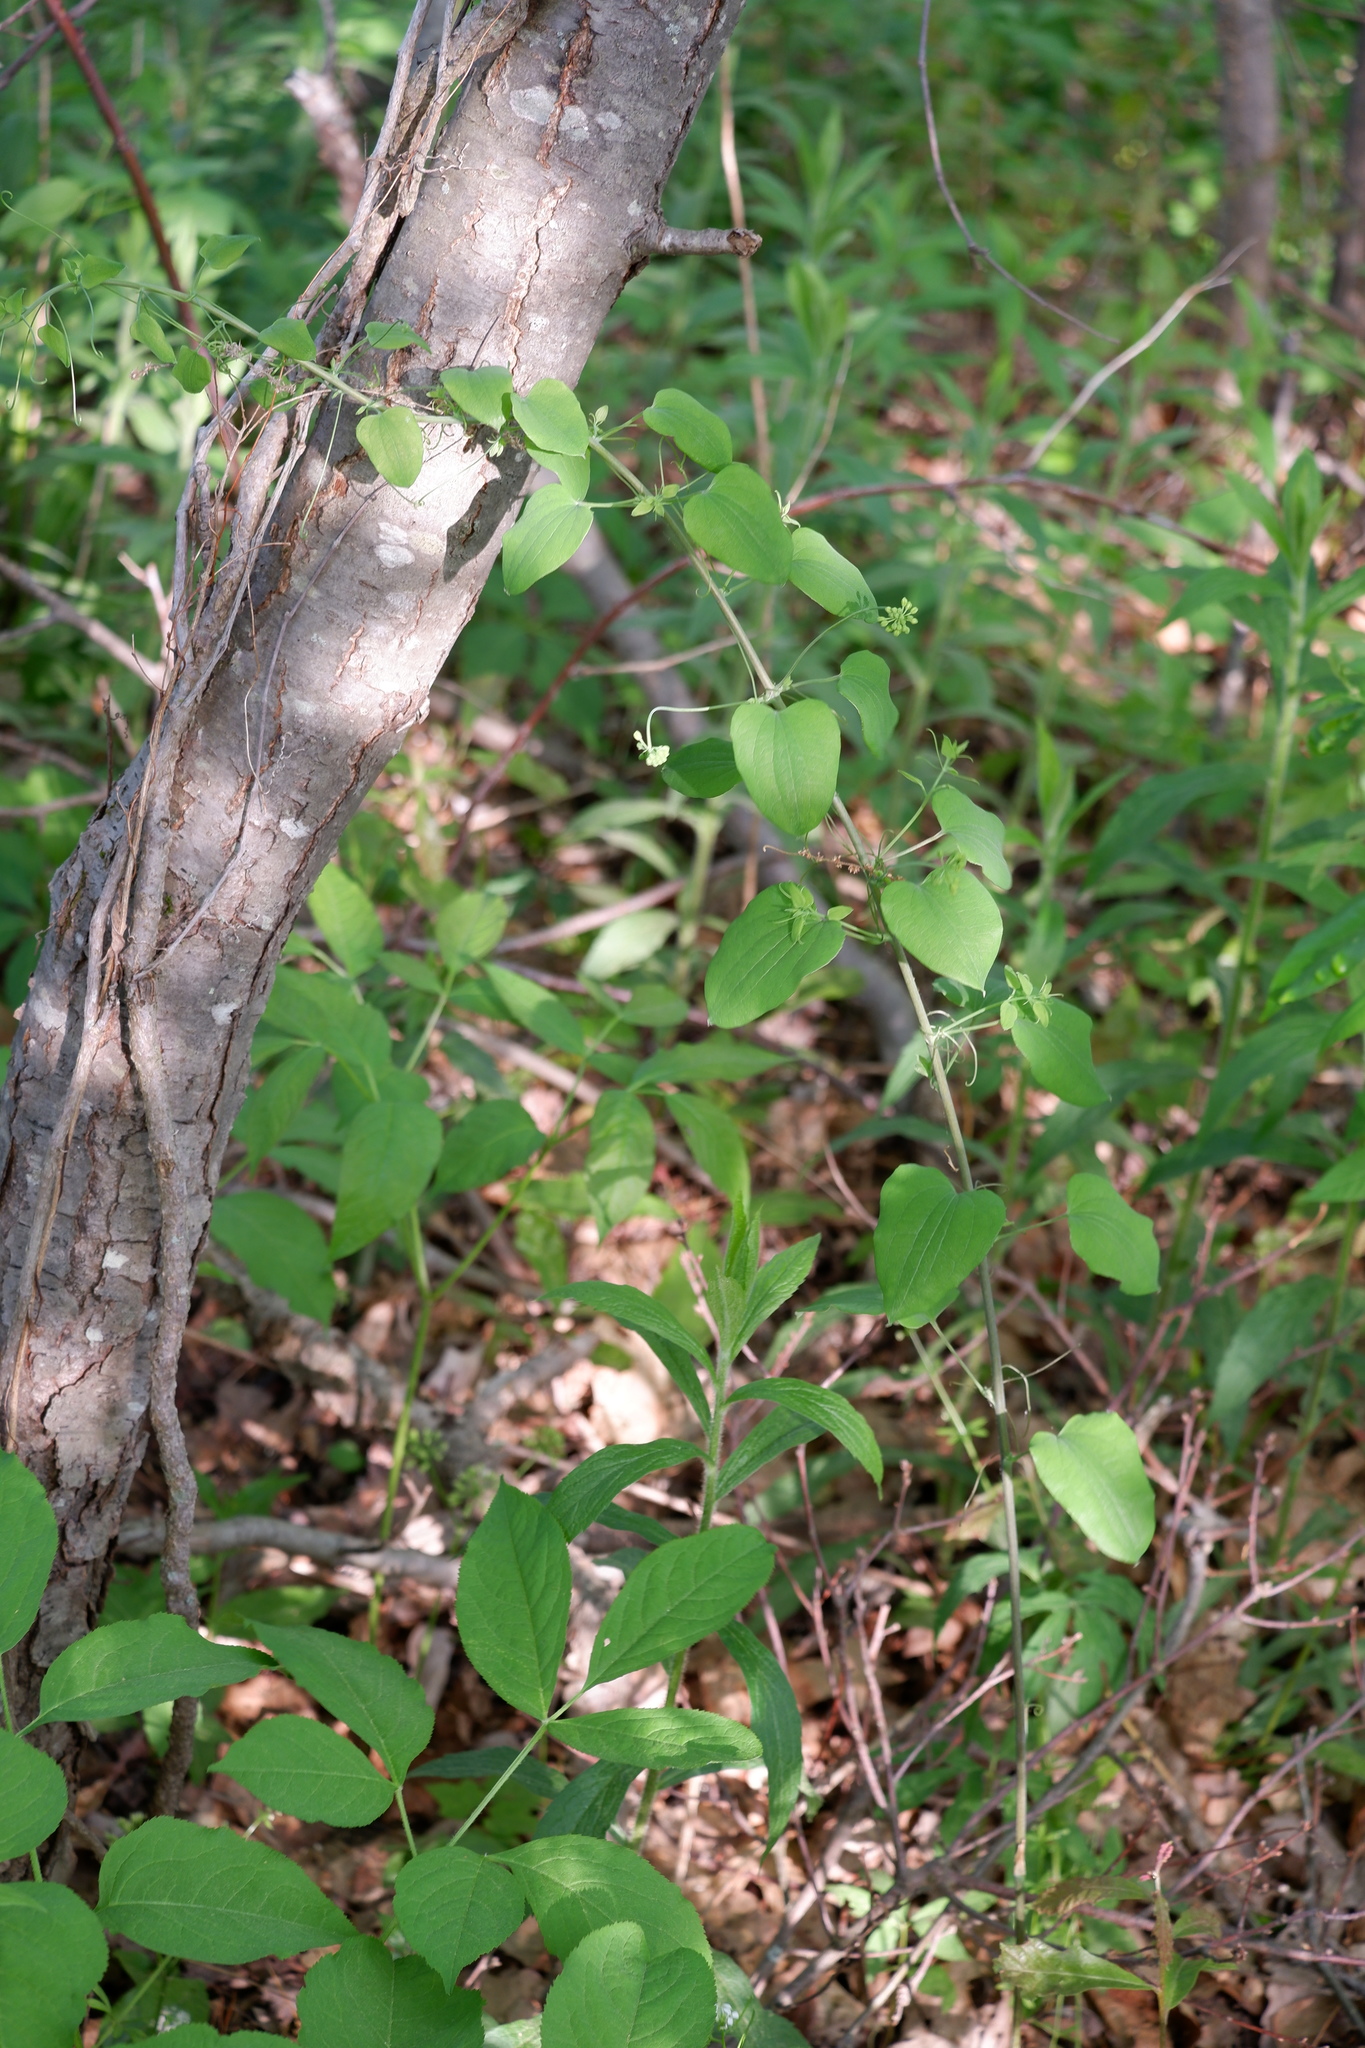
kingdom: Plantae
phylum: Tracheophyta
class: Liliopsida
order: Liliales
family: Smilacaceae
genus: Smilax
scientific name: Smilax herbacea
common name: Jacob's-ladder
